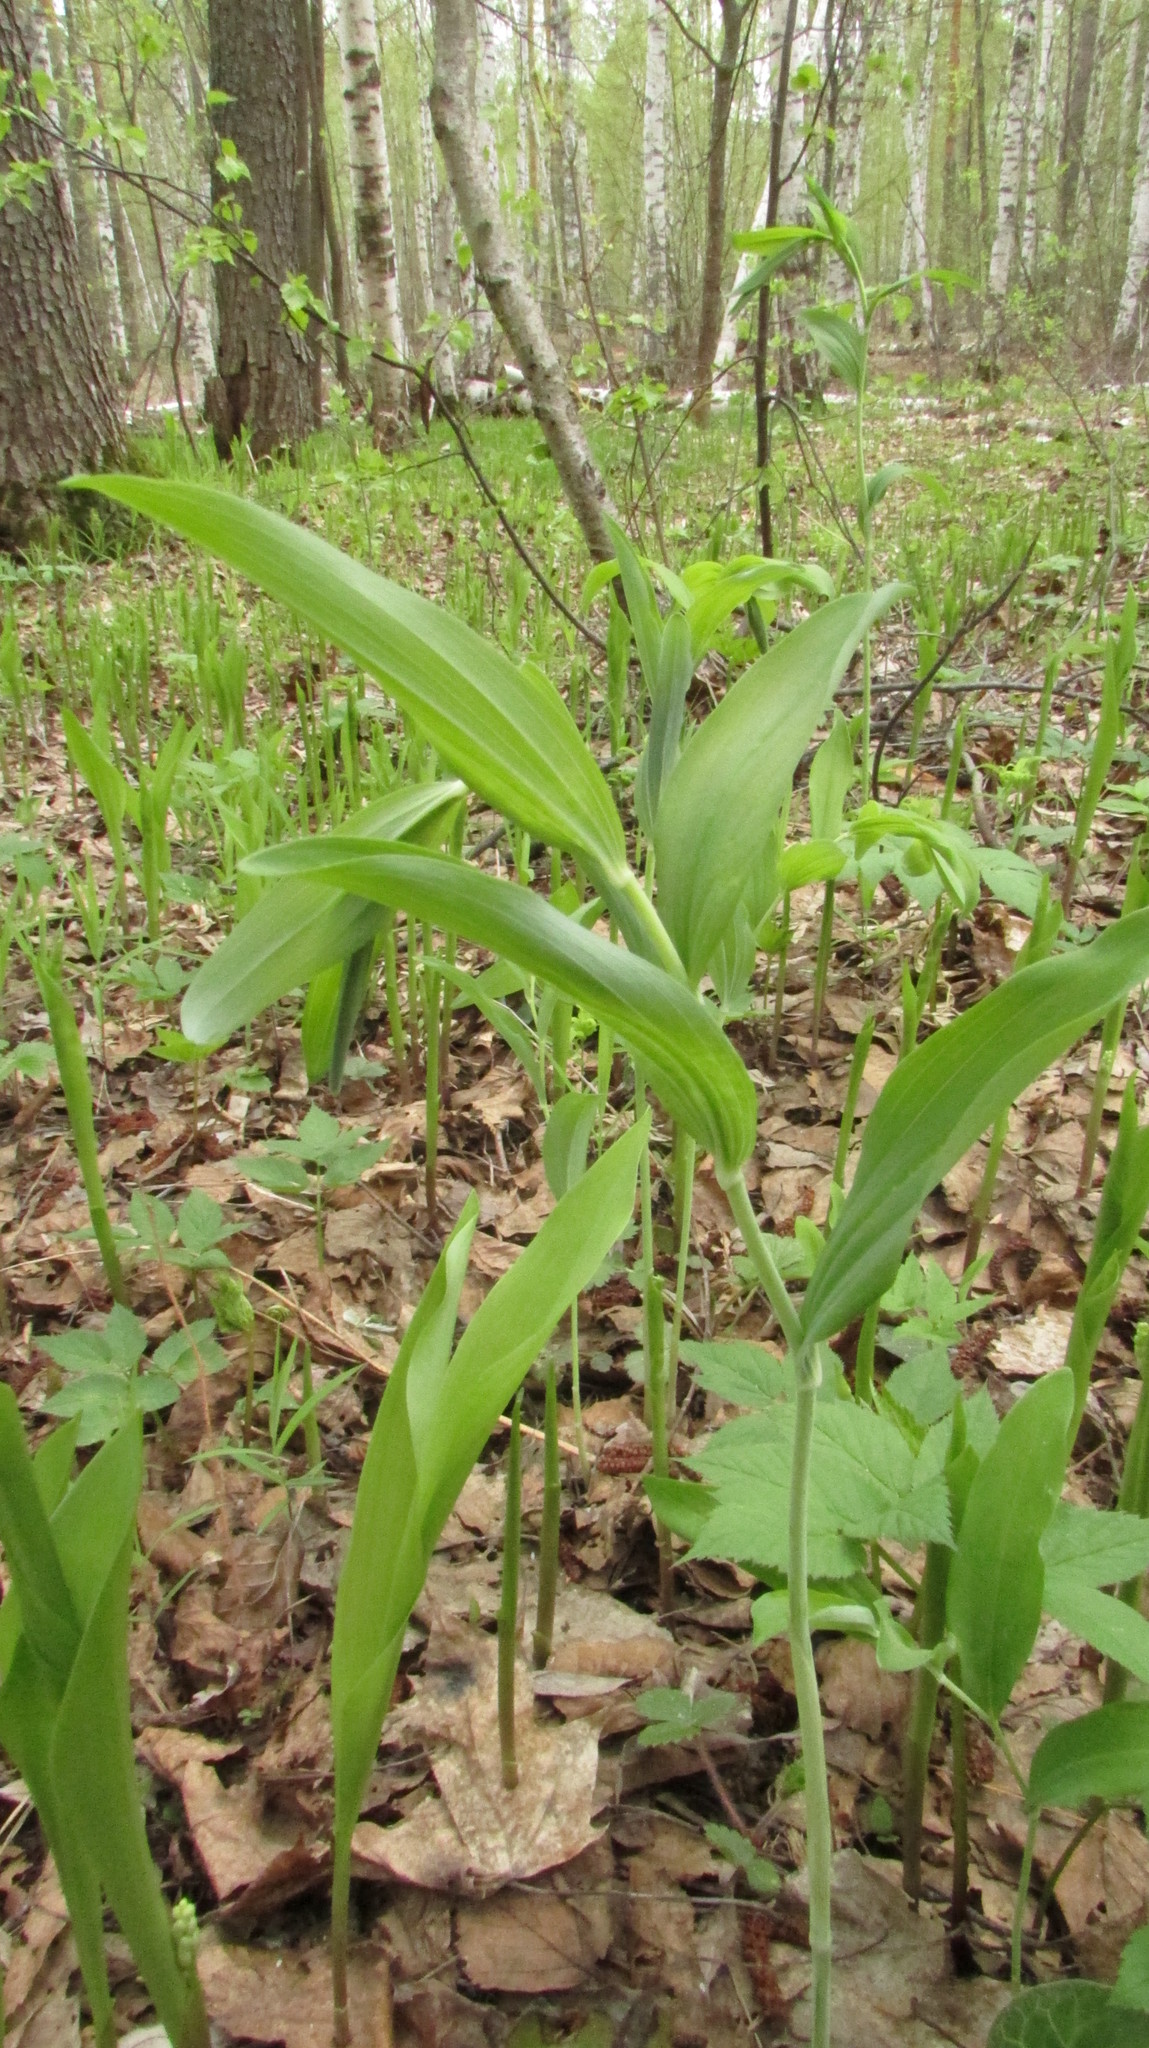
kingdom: Plantae
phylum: Tracheophyta
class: Liliopsida
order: Asparagales
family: Asparagaceae
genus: Polygonatum
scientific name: Polygonatum multiflorum
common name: Solomon's-seal
